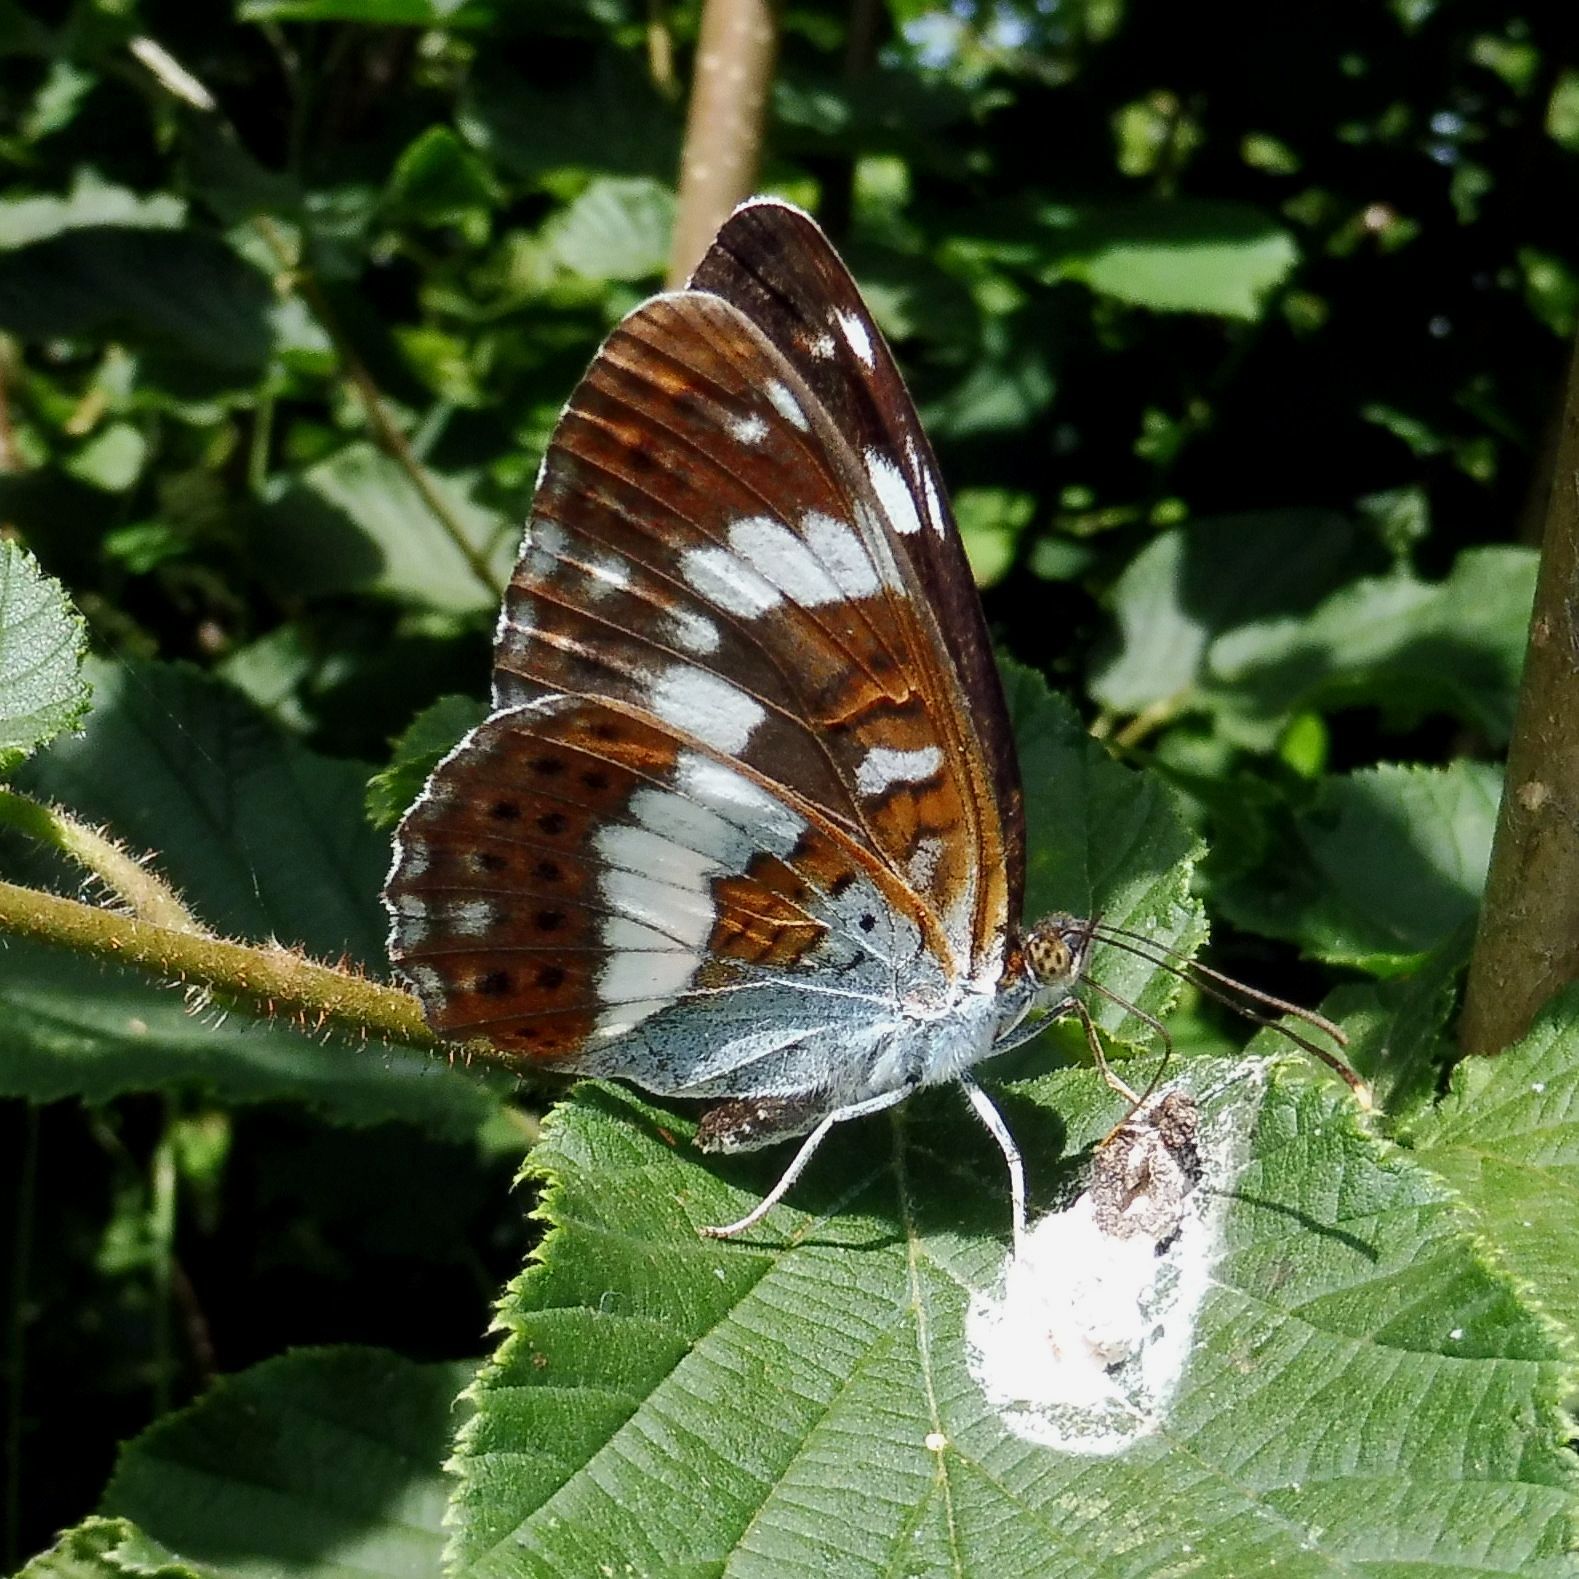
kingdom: Animalia
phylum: Arthropoda
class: Insecta
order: Lepidoptera
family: Nymphalidae
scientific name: Nymphalidae
